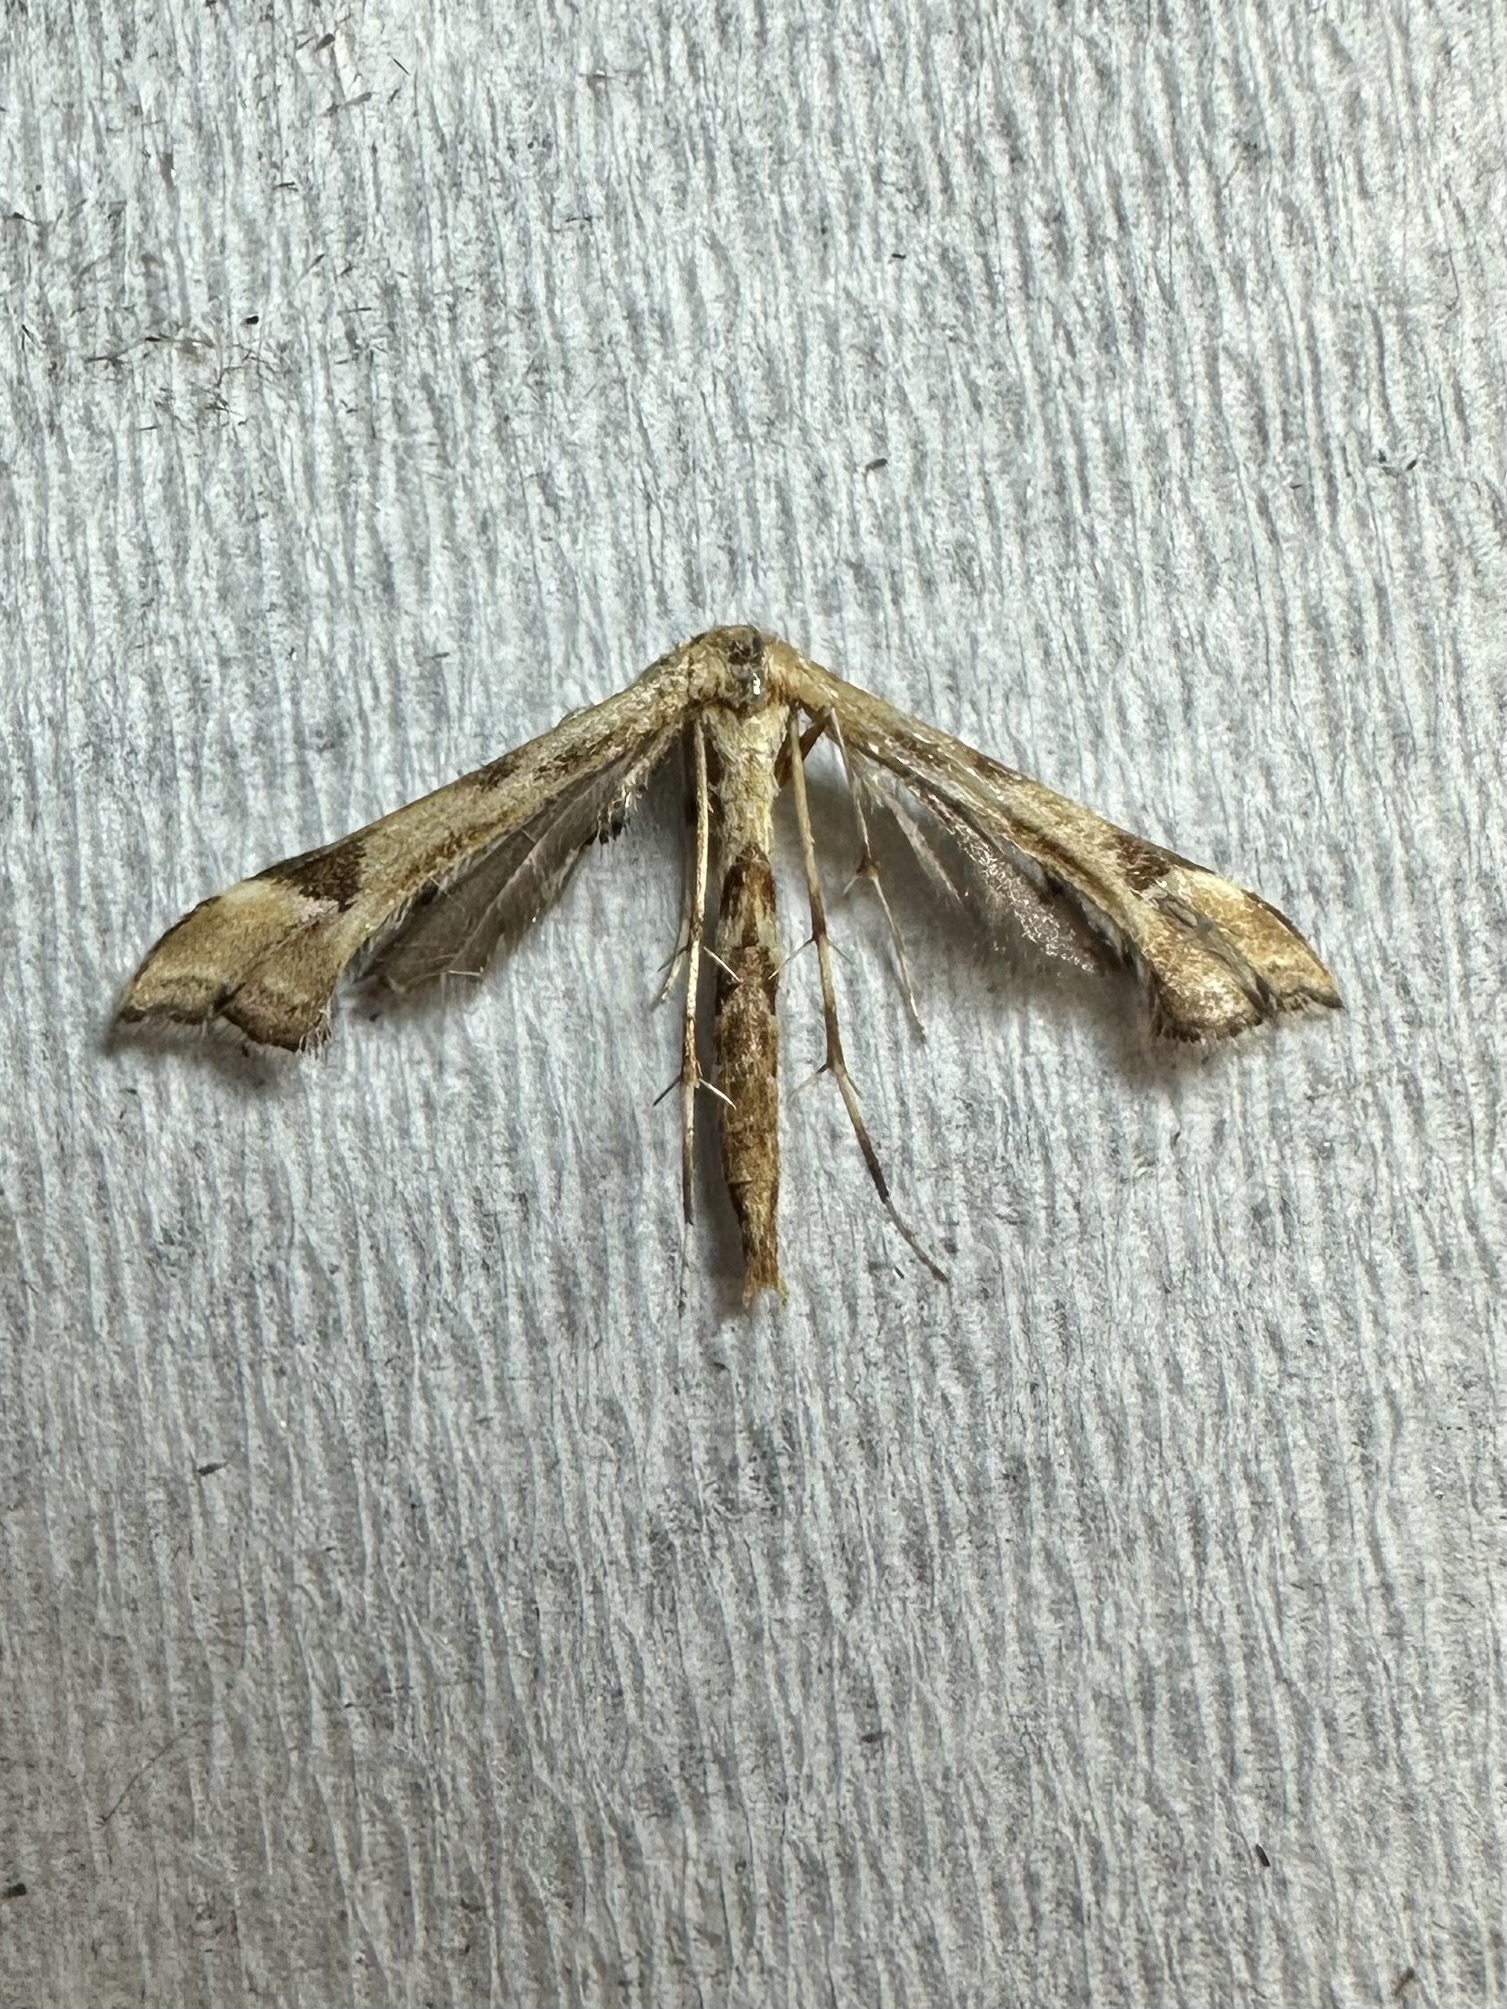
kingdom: Animalia
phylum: Arthropoda
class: Insecta
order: Lepidoptera
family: Pterophoridae
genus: Platyptilia
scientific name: Platyptilia carduidactylus
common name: Artichoke plume moth
